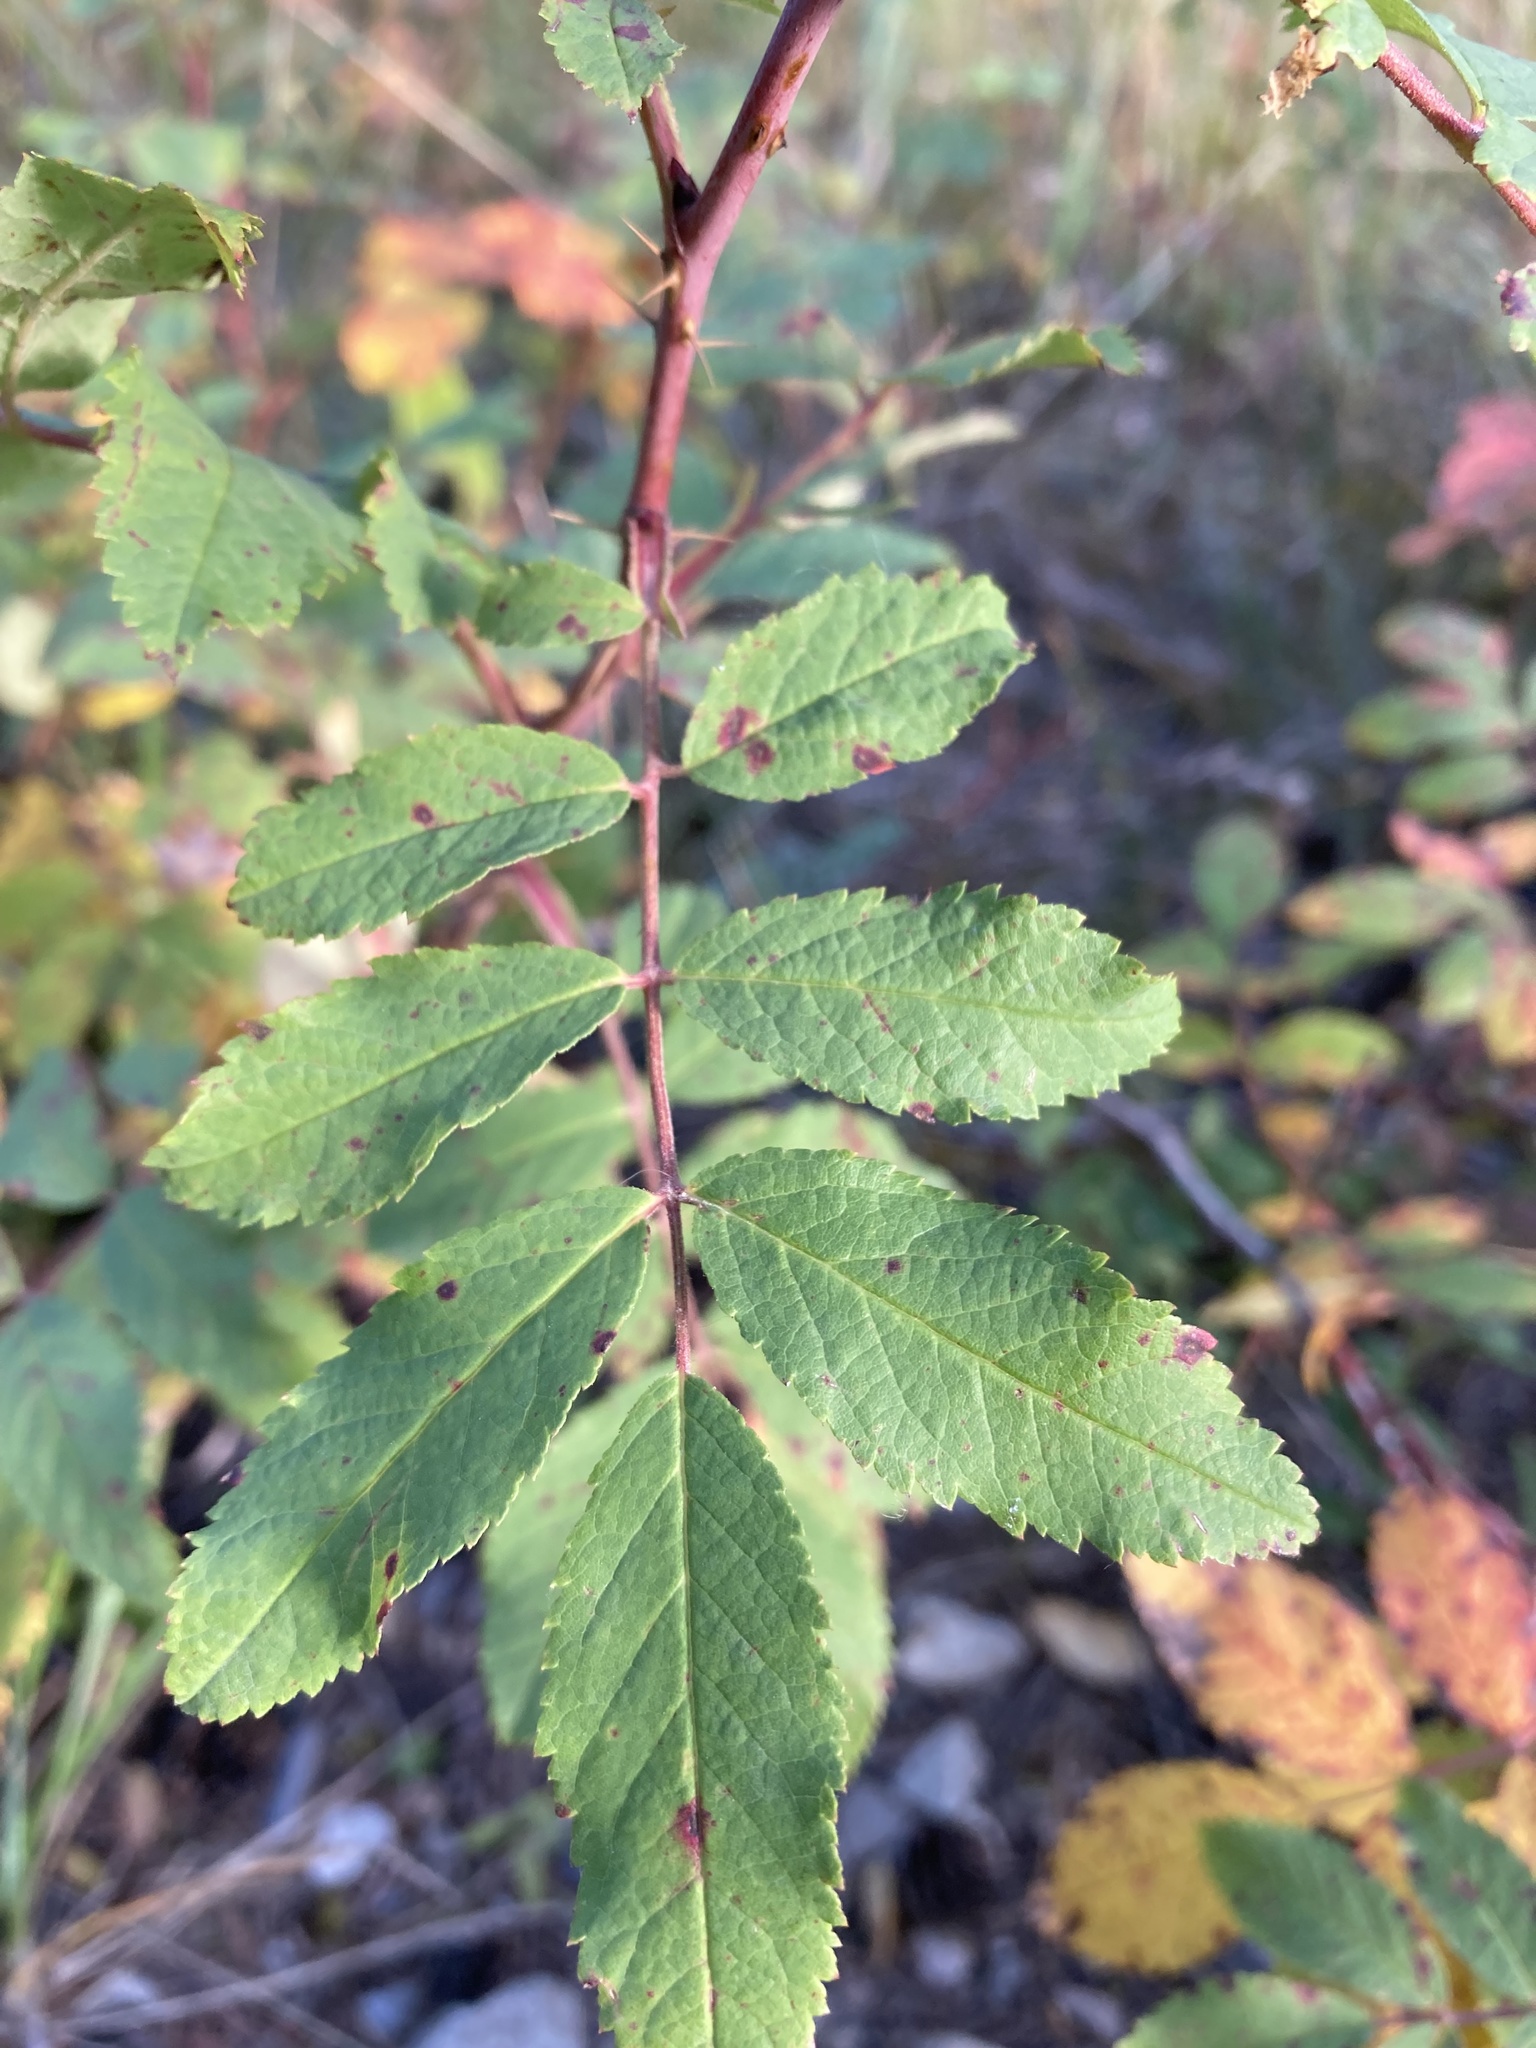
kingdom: Plantae
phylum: Tracheophyta
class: Magnoliopsida
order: Rosales
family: Rosaceae
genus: Rosa
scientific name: Rosa woodsii
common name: Woods's rose
